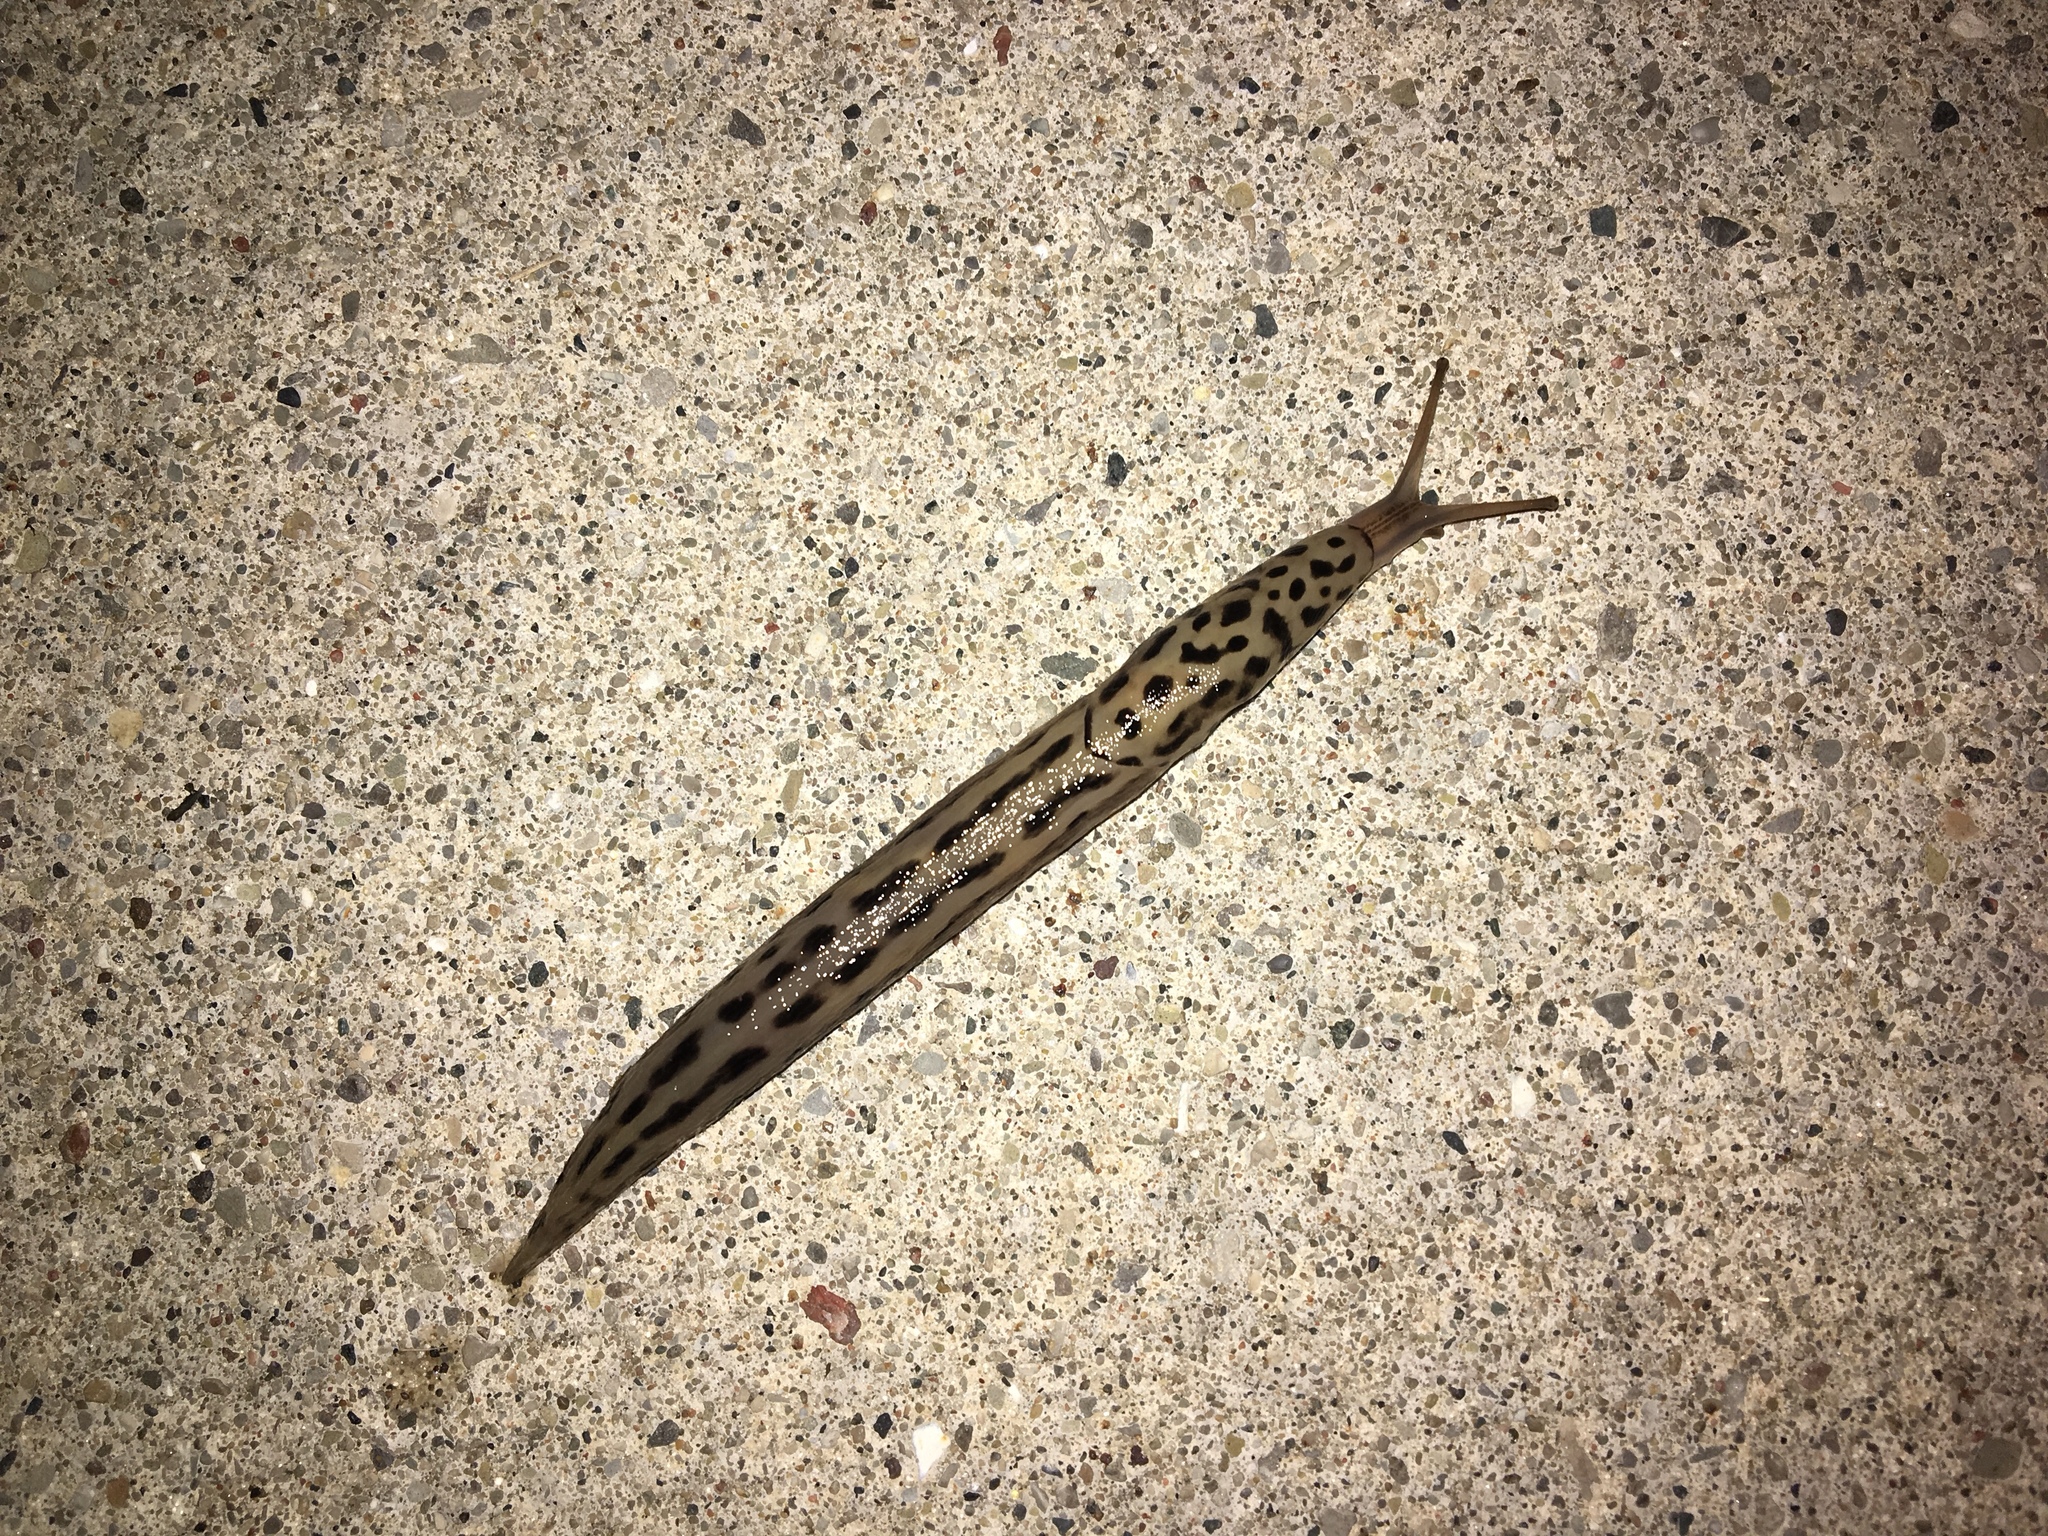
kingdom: Animalia
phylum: Mollusca
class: Gastropoda
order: Stylommatophora
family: Limacidae
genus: Limax
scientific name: Limax maximus
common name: Great grey slug
